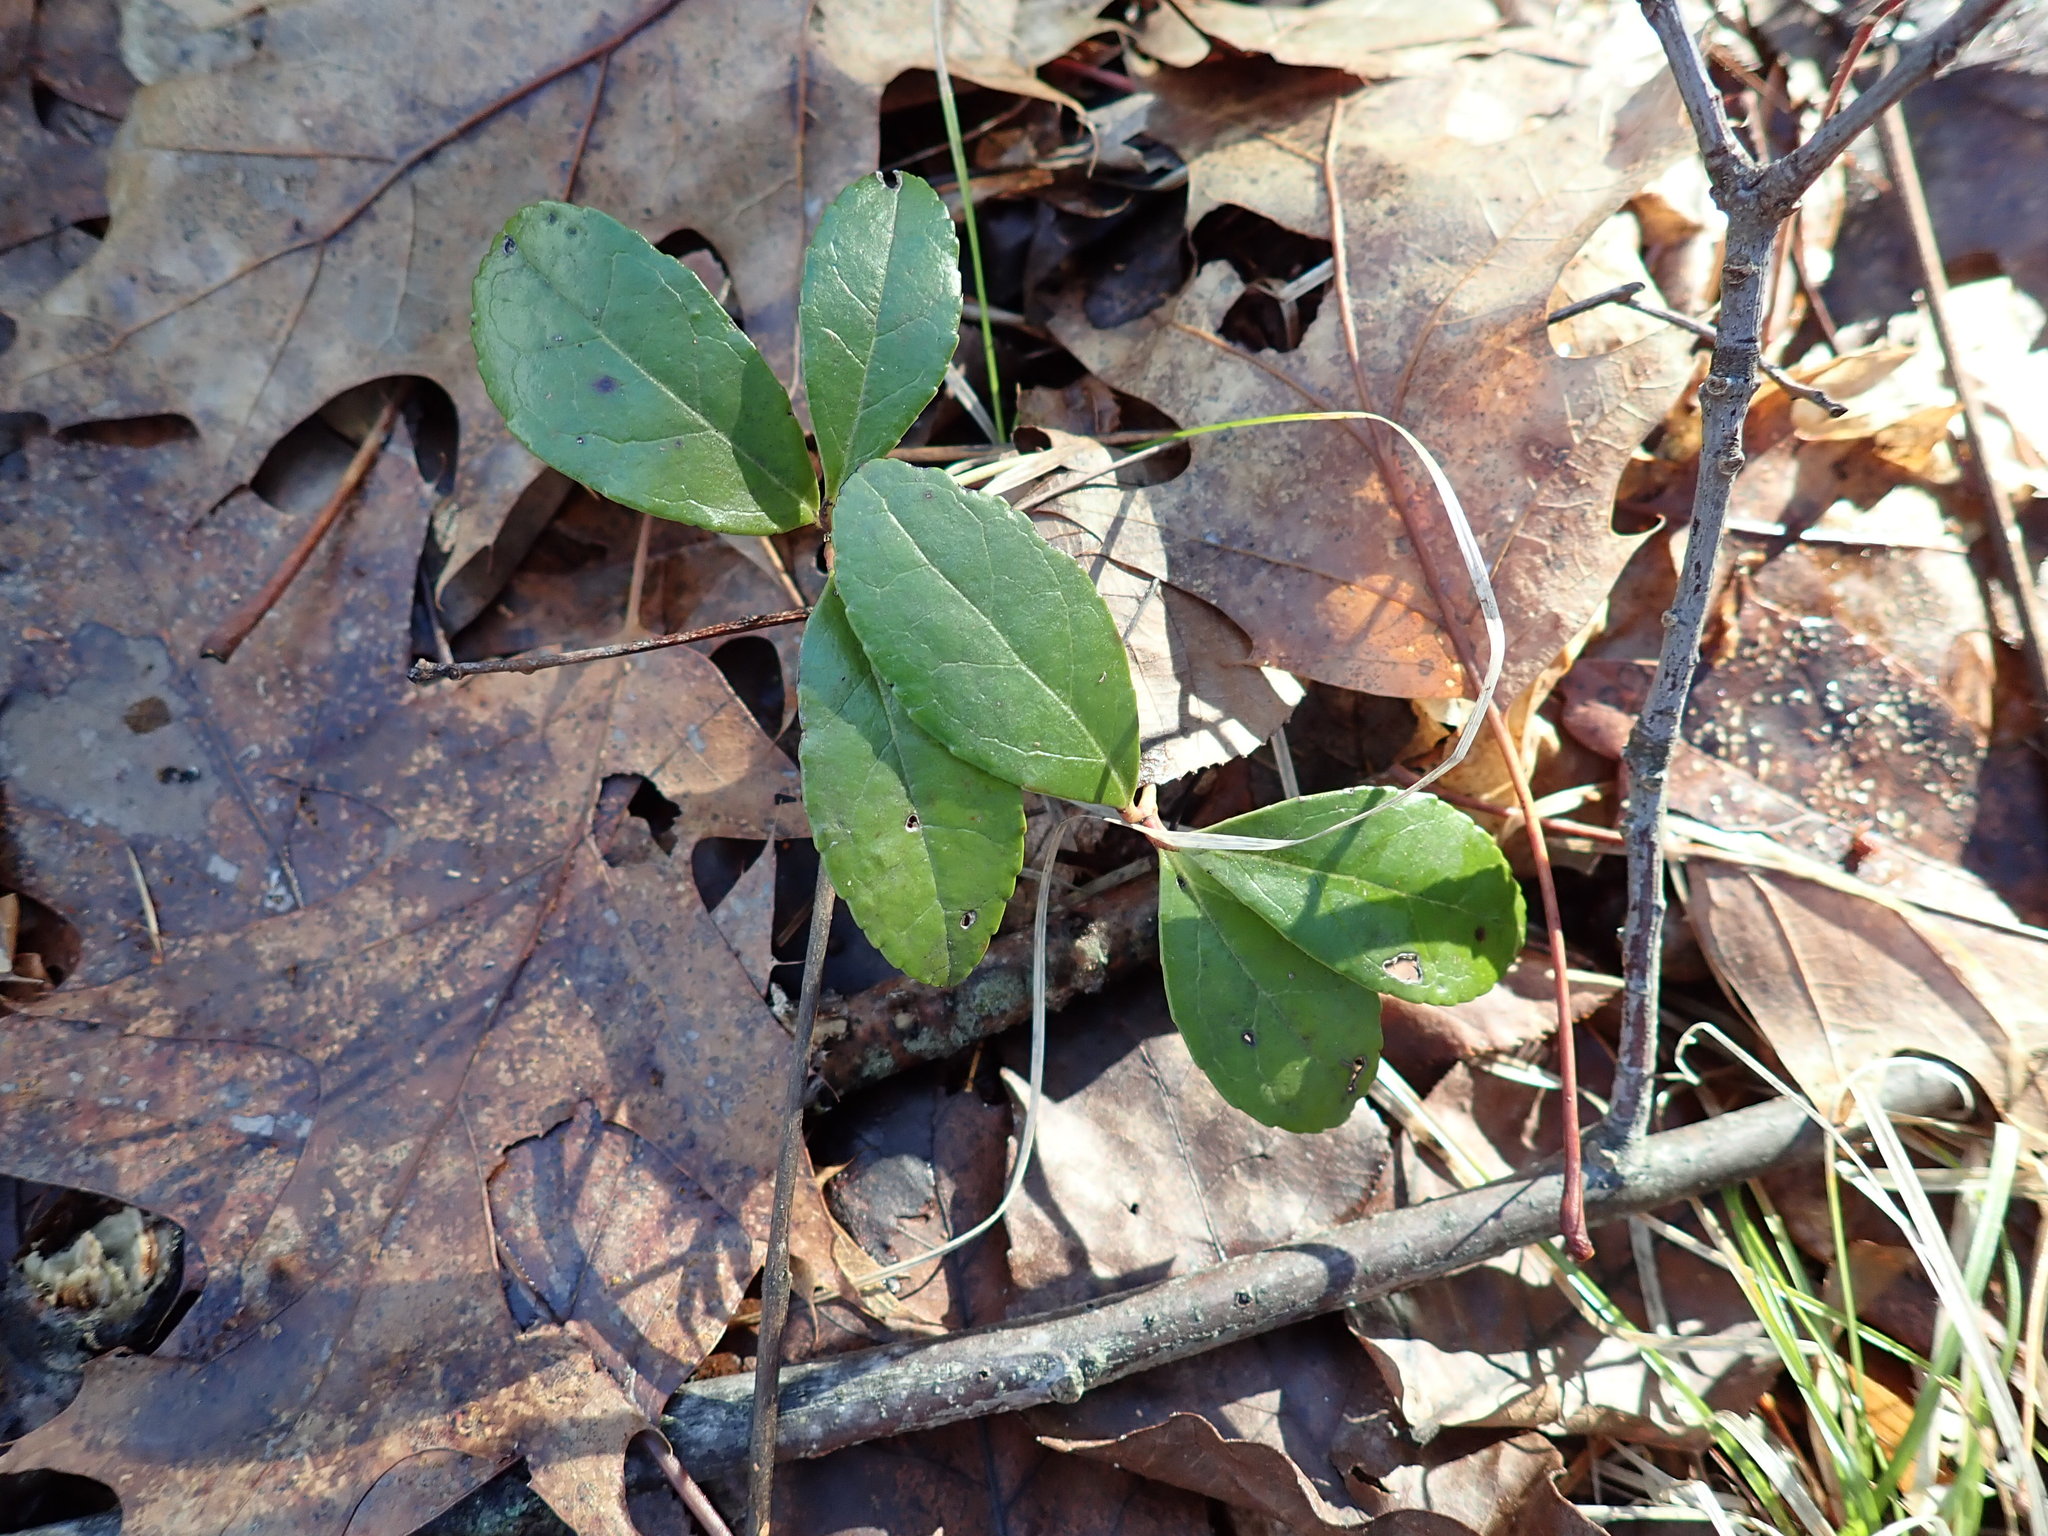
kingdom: Plantae
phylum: Tracheophyta
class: Magnoliopsida
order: Ericales
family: Ericaceae
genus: Gaultheria
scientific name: Gaultheria procumbens
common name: Checkerberry
